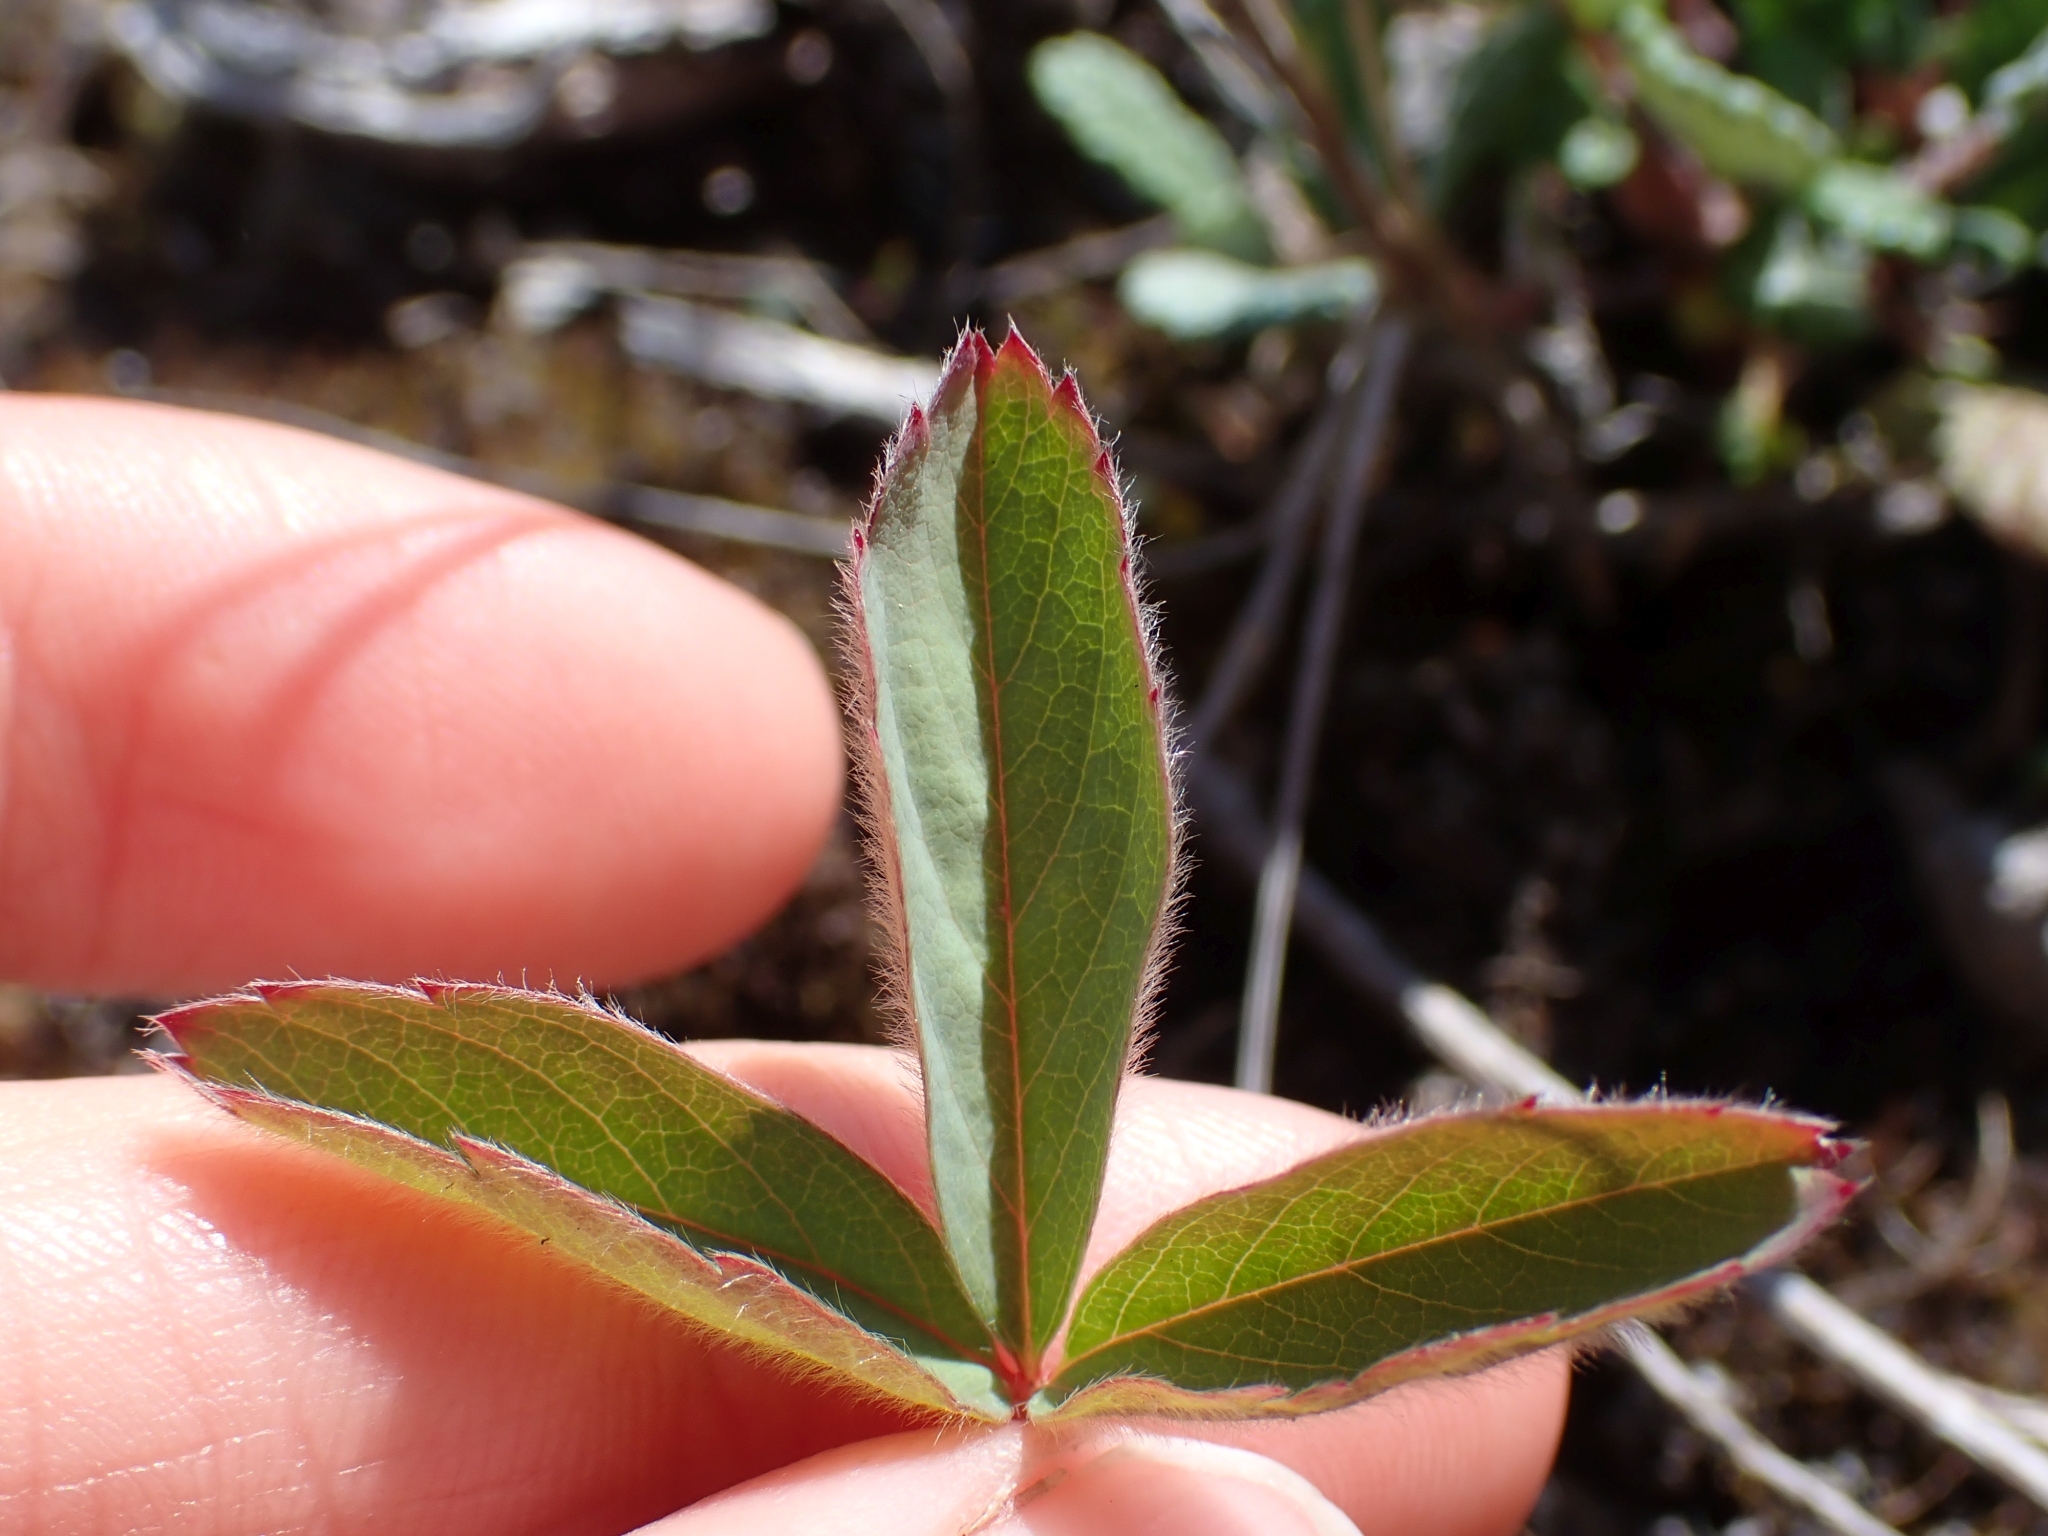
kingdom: Plantae
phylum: Tracheophyta
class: Magnoliopsida
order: Rosales
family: Rosaceae
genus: Fragaria
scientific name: Fragaria virginiana
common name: Thickleaved wild strawberry
